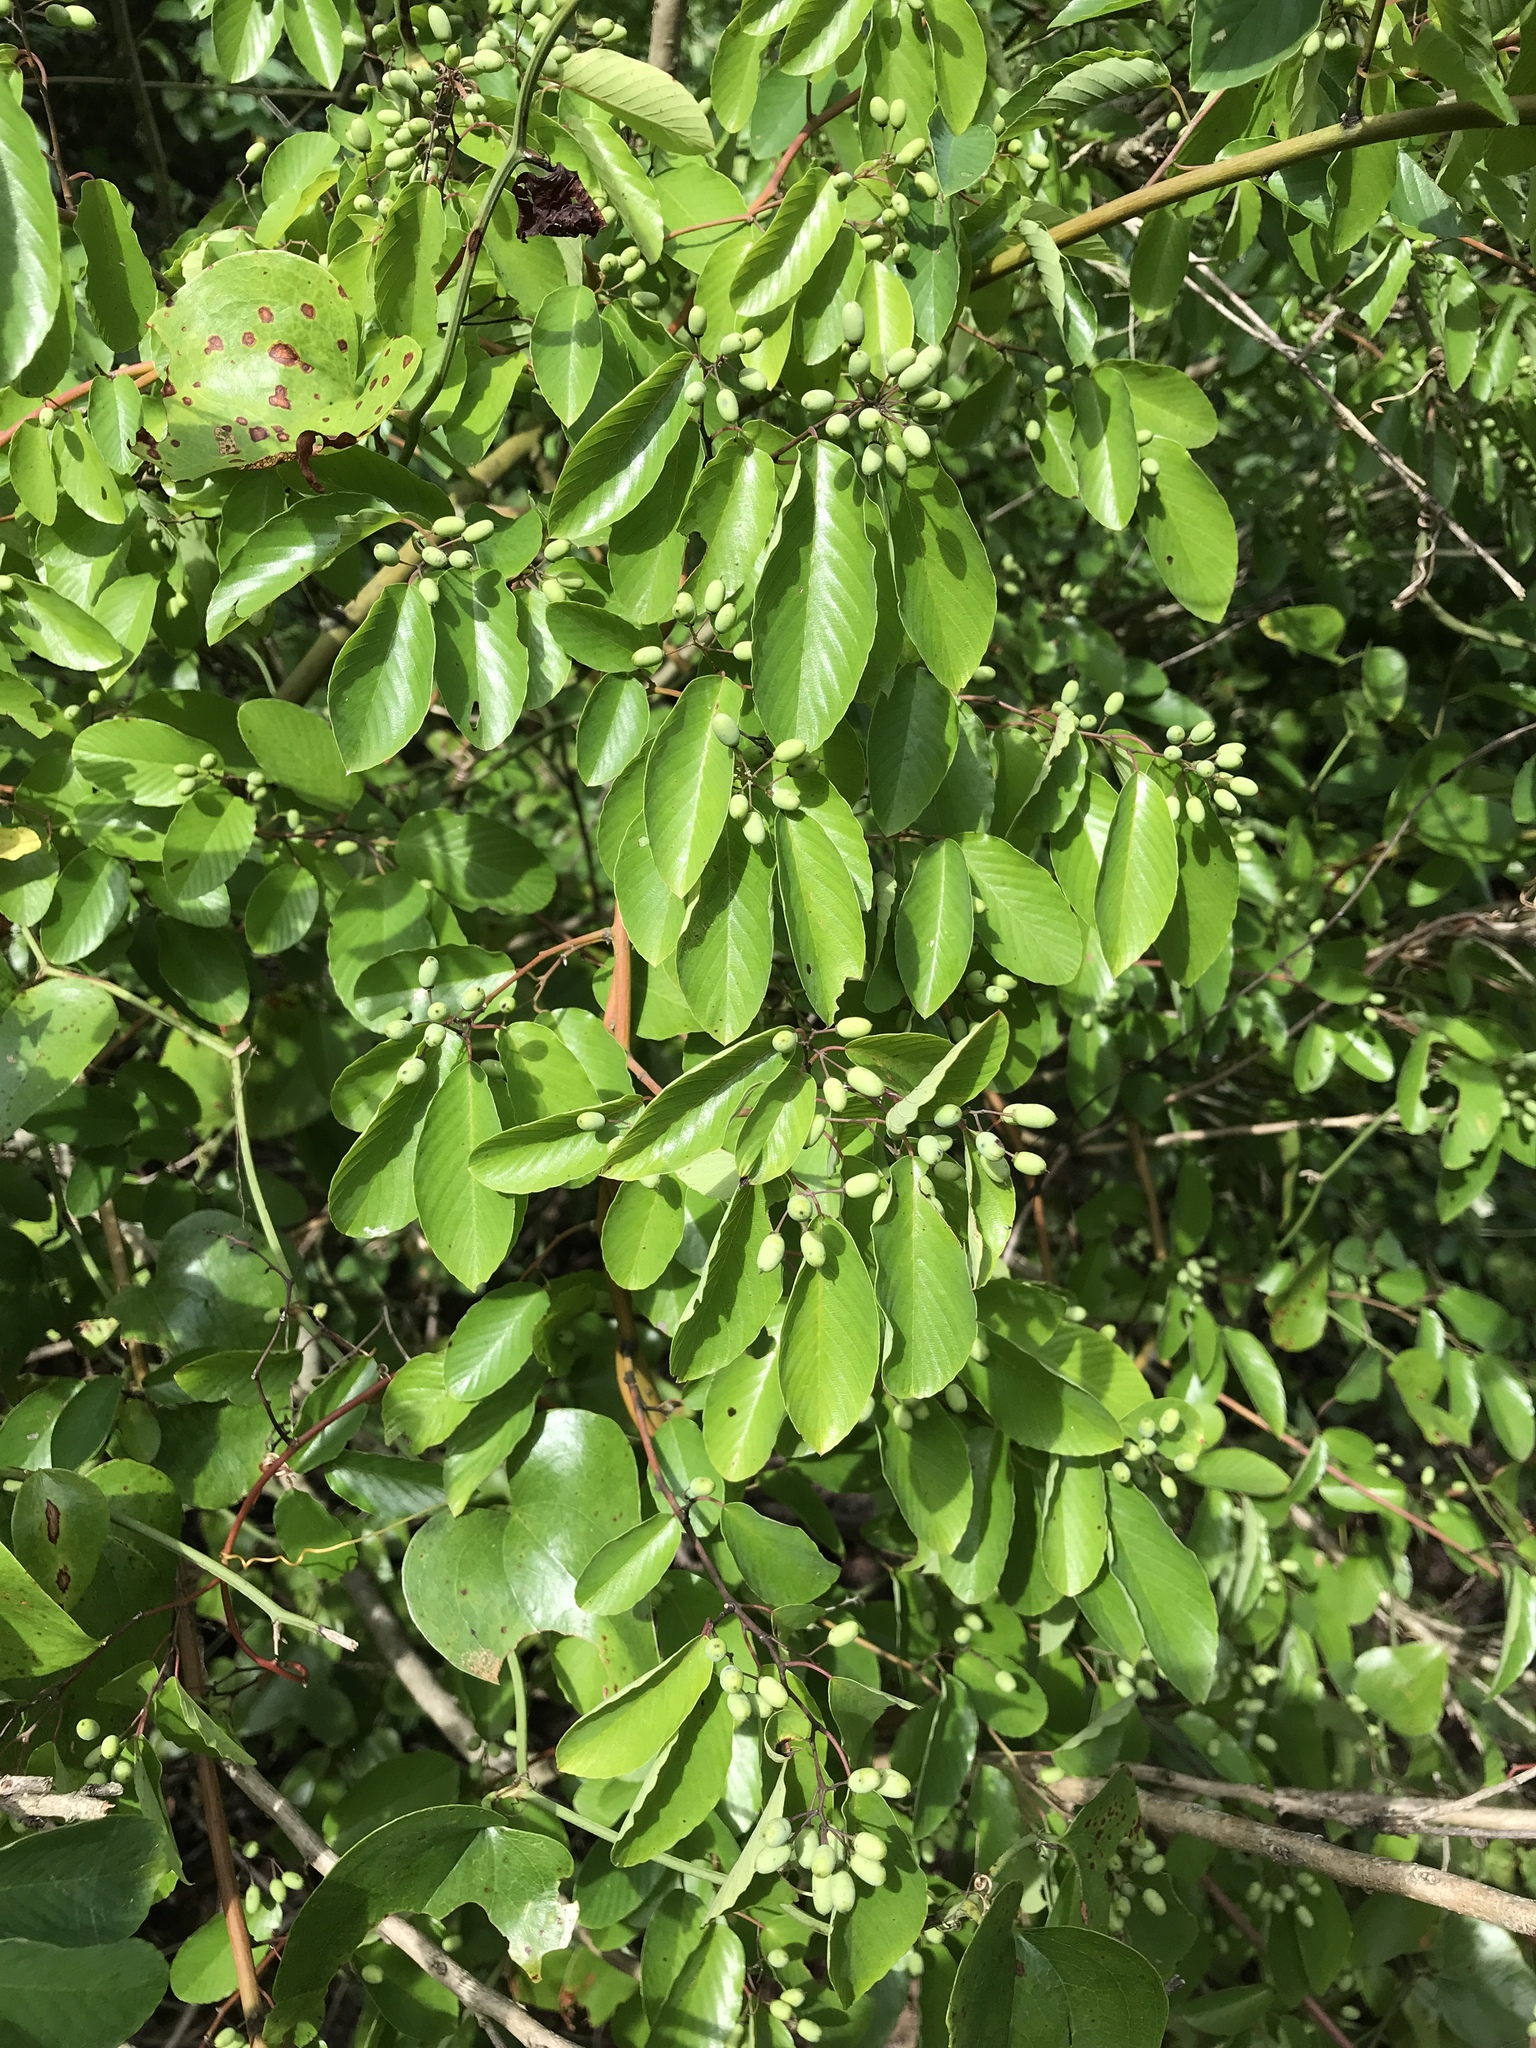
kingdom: Plantae
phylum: Tracheophyta
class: Magnoliopsida
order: Rosales
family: Rhamnaceae
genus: Berchemia
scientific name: Berchemia scandens
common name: Supplejack
